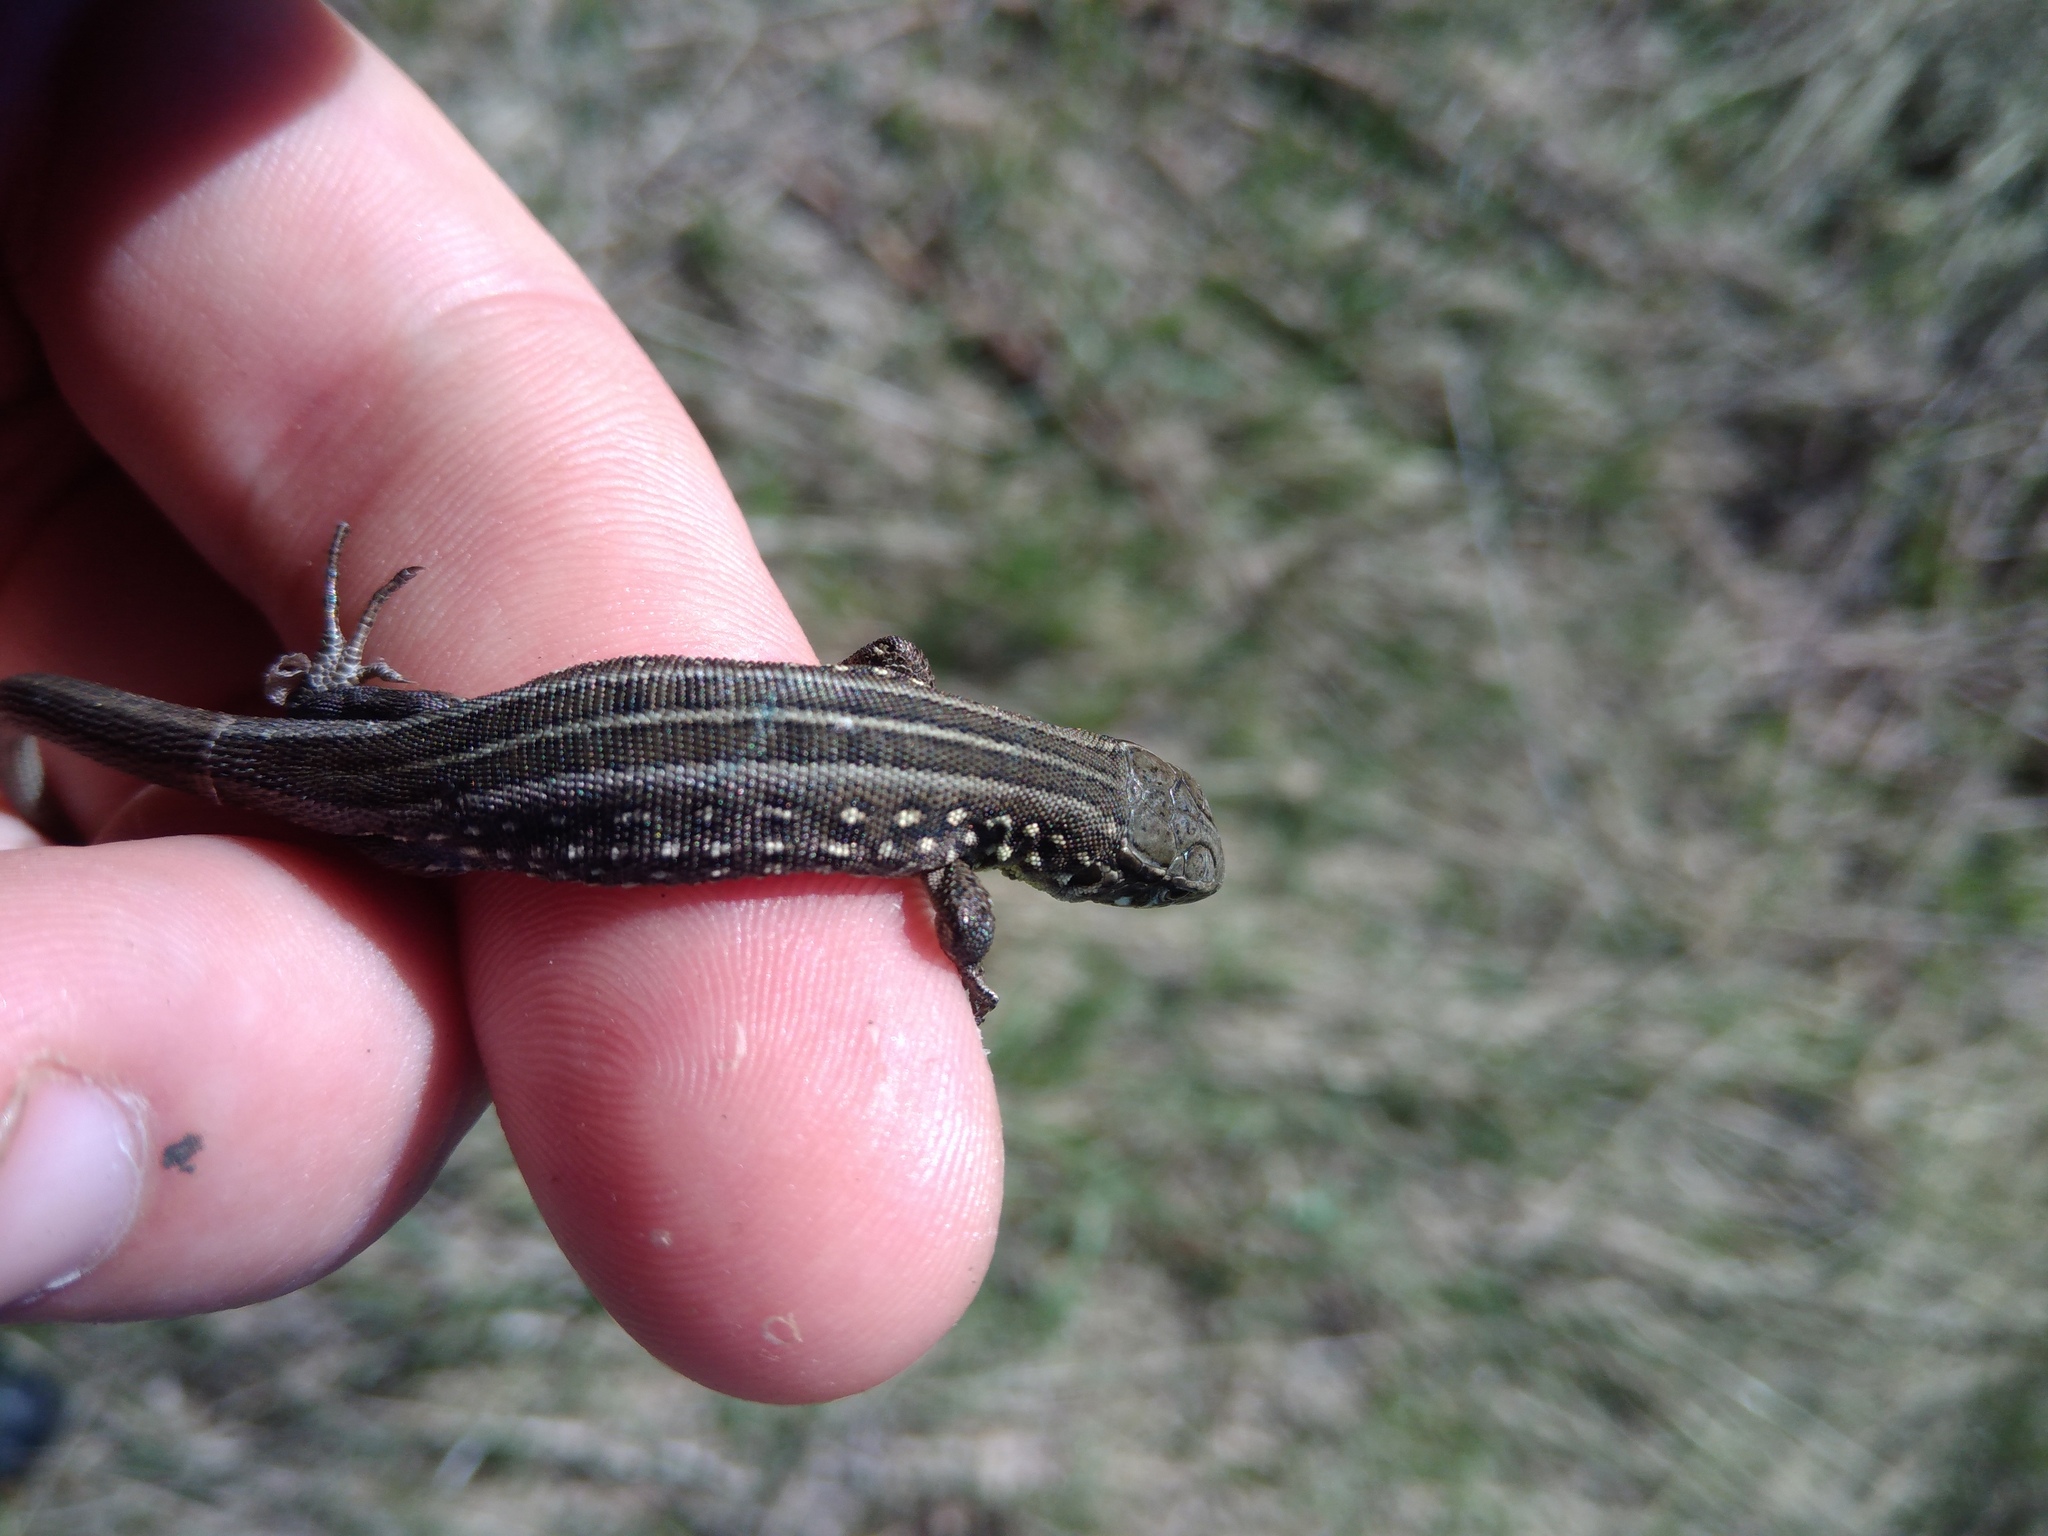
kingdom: Animalia
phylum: Chordata
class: Squamata
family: Lacertidae
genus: Lacerta
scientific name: Lacerta agilis
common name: Sand lizard
